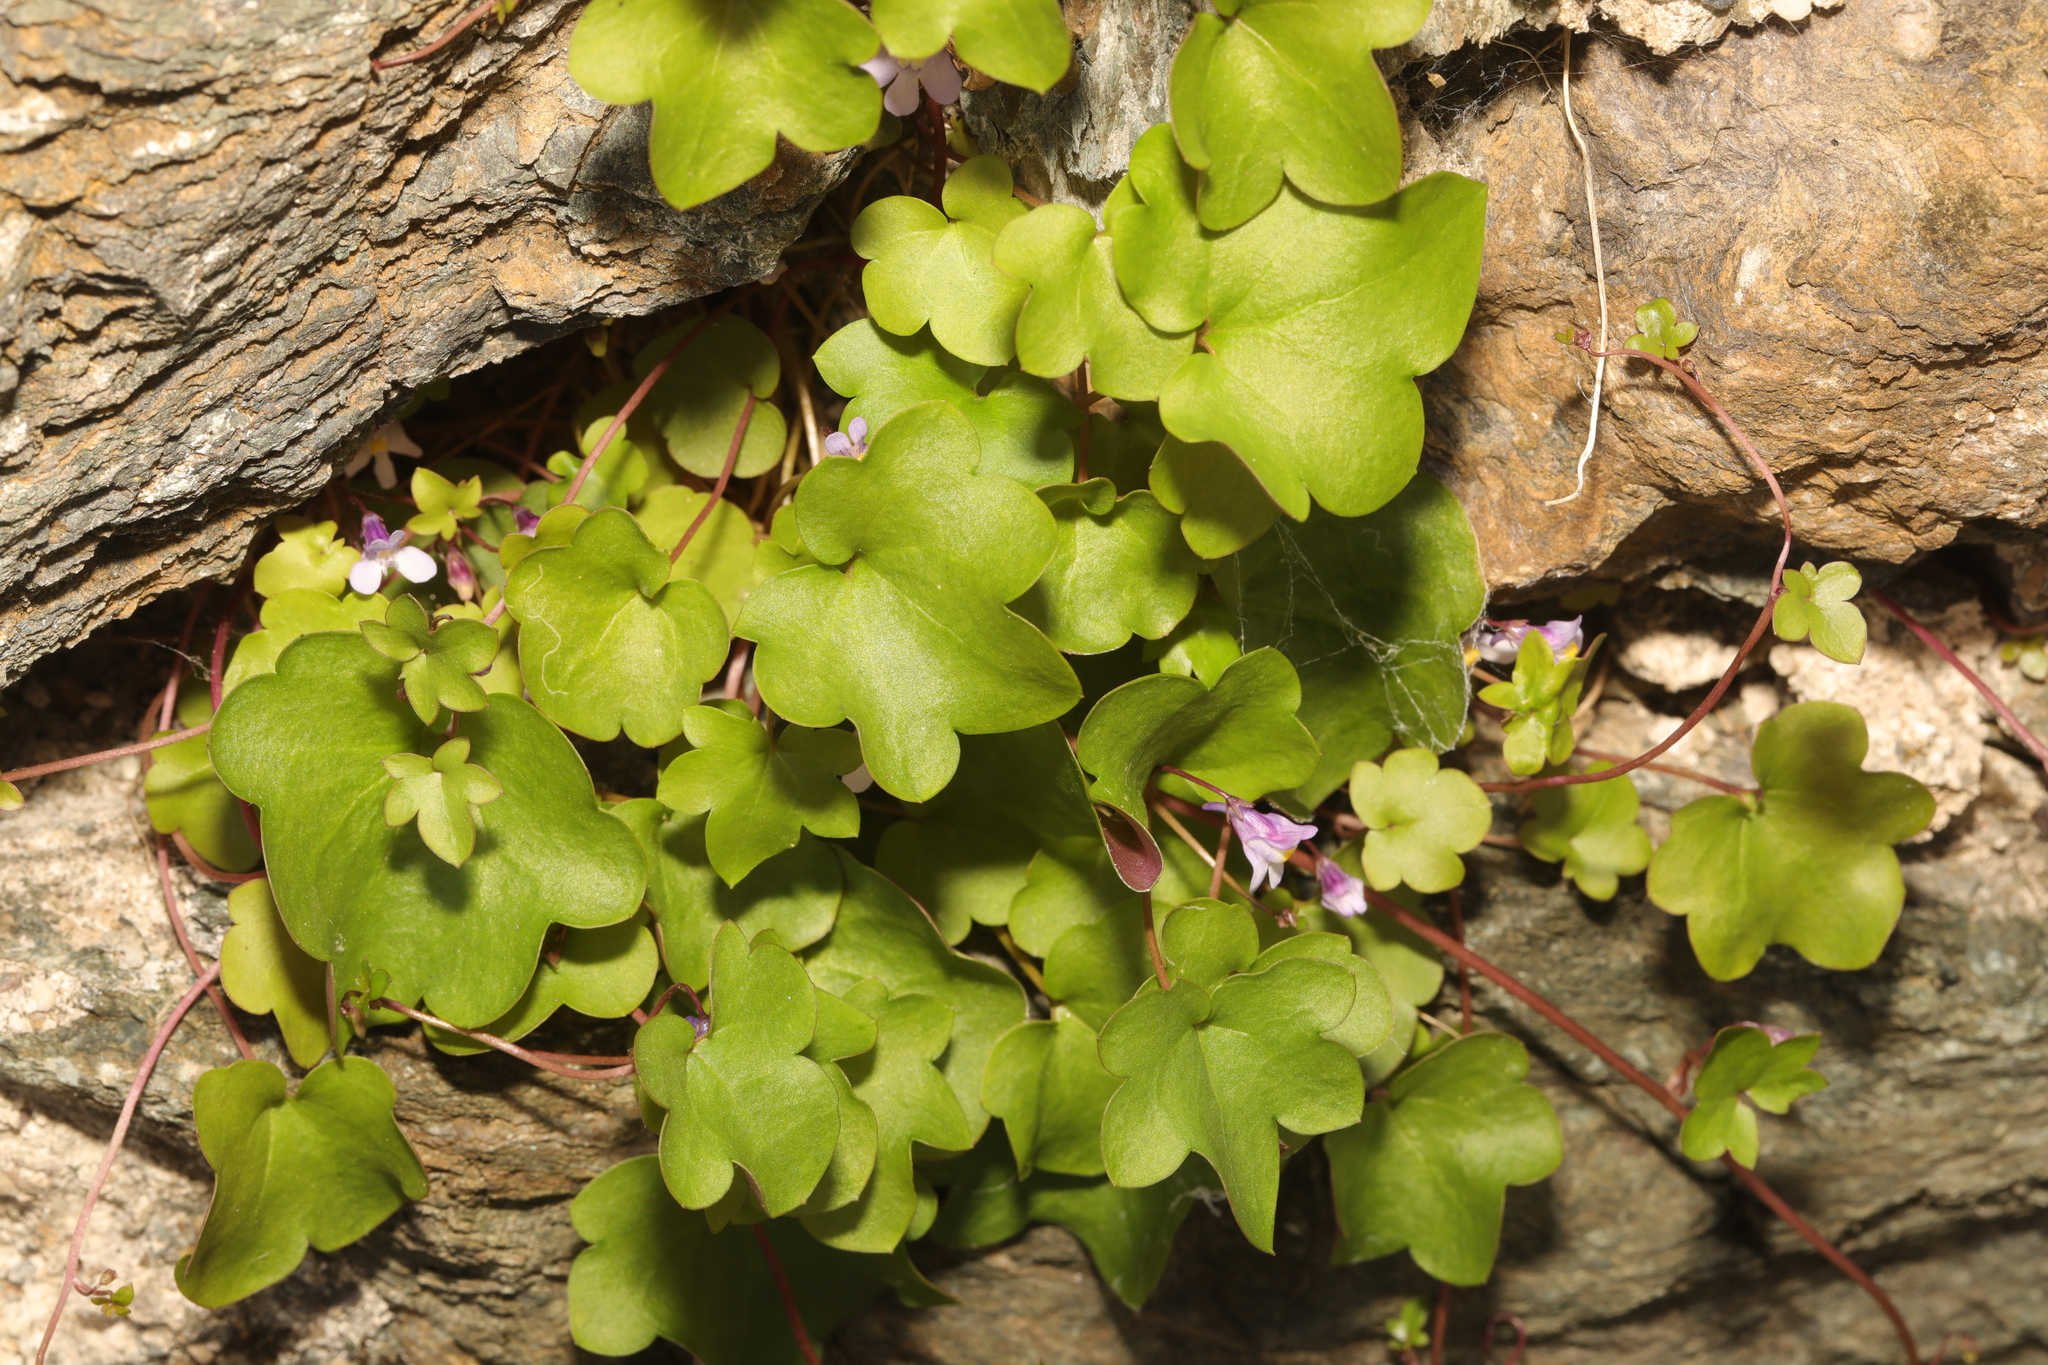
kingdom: Plantae
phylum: Tracheophyta
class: Magnoliopsida
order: Lamiales
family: Plantaginaceae
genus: Cymbalaria
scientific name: Cymbalaria muralis
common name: Ivy-leaved toadflax
